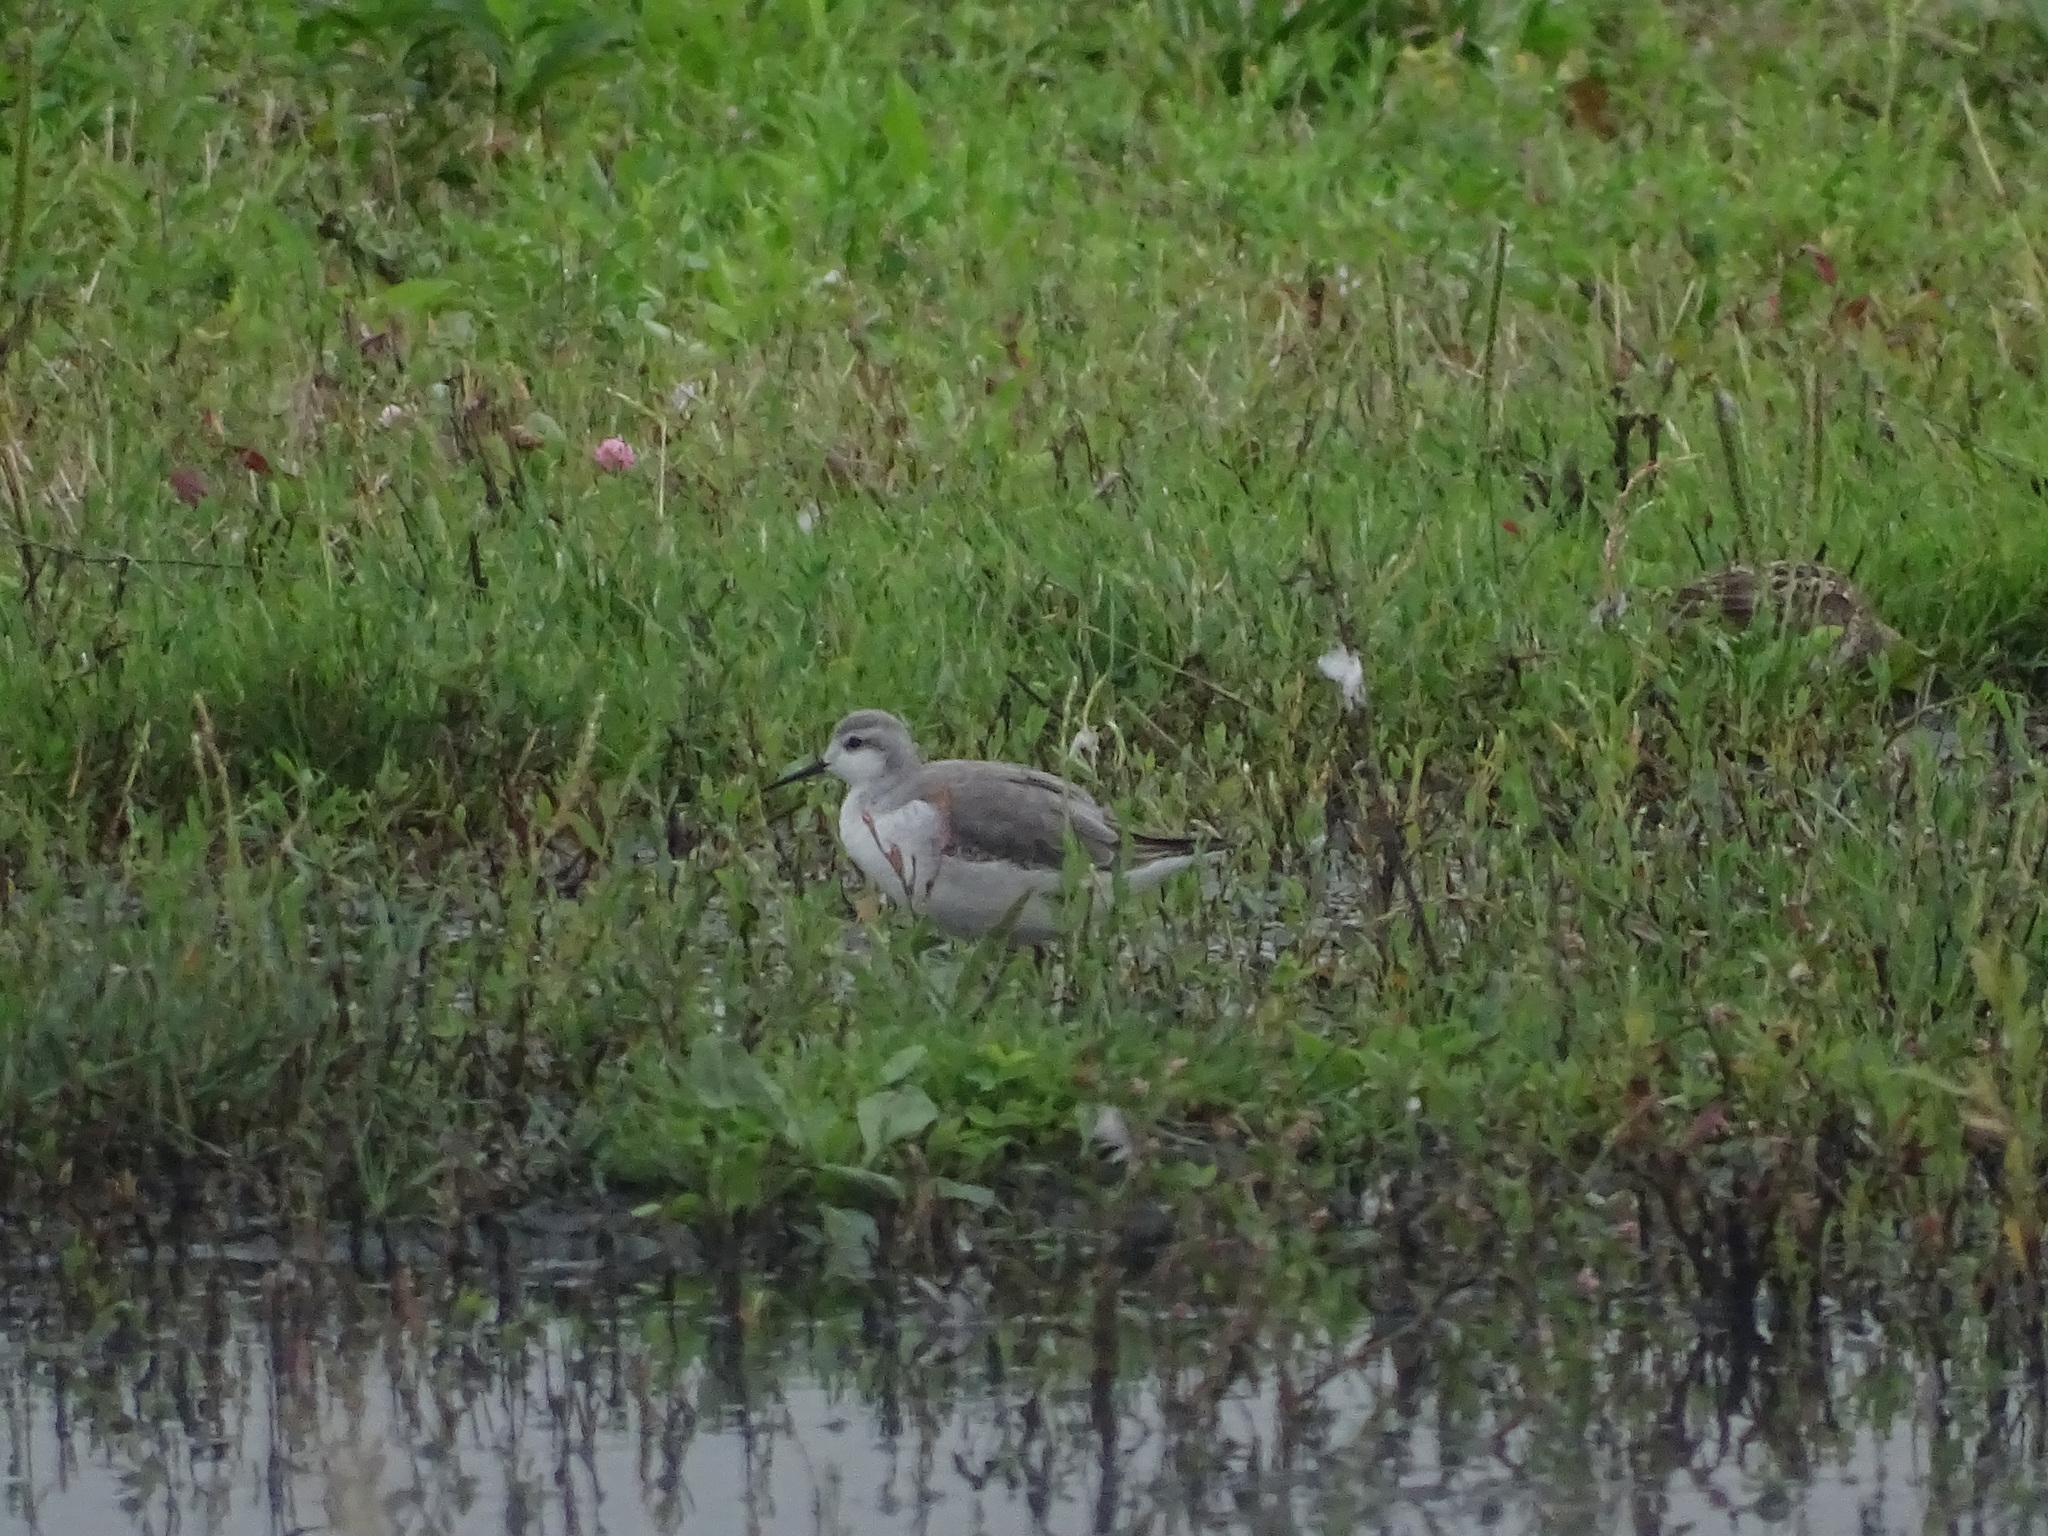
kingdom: Animalia
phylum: Chordata
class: Aves
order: Charadriiformes
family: Scolopacidae
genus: Phalaropus
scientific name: Phalaropus tricolor
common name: Wilson's phalarope
